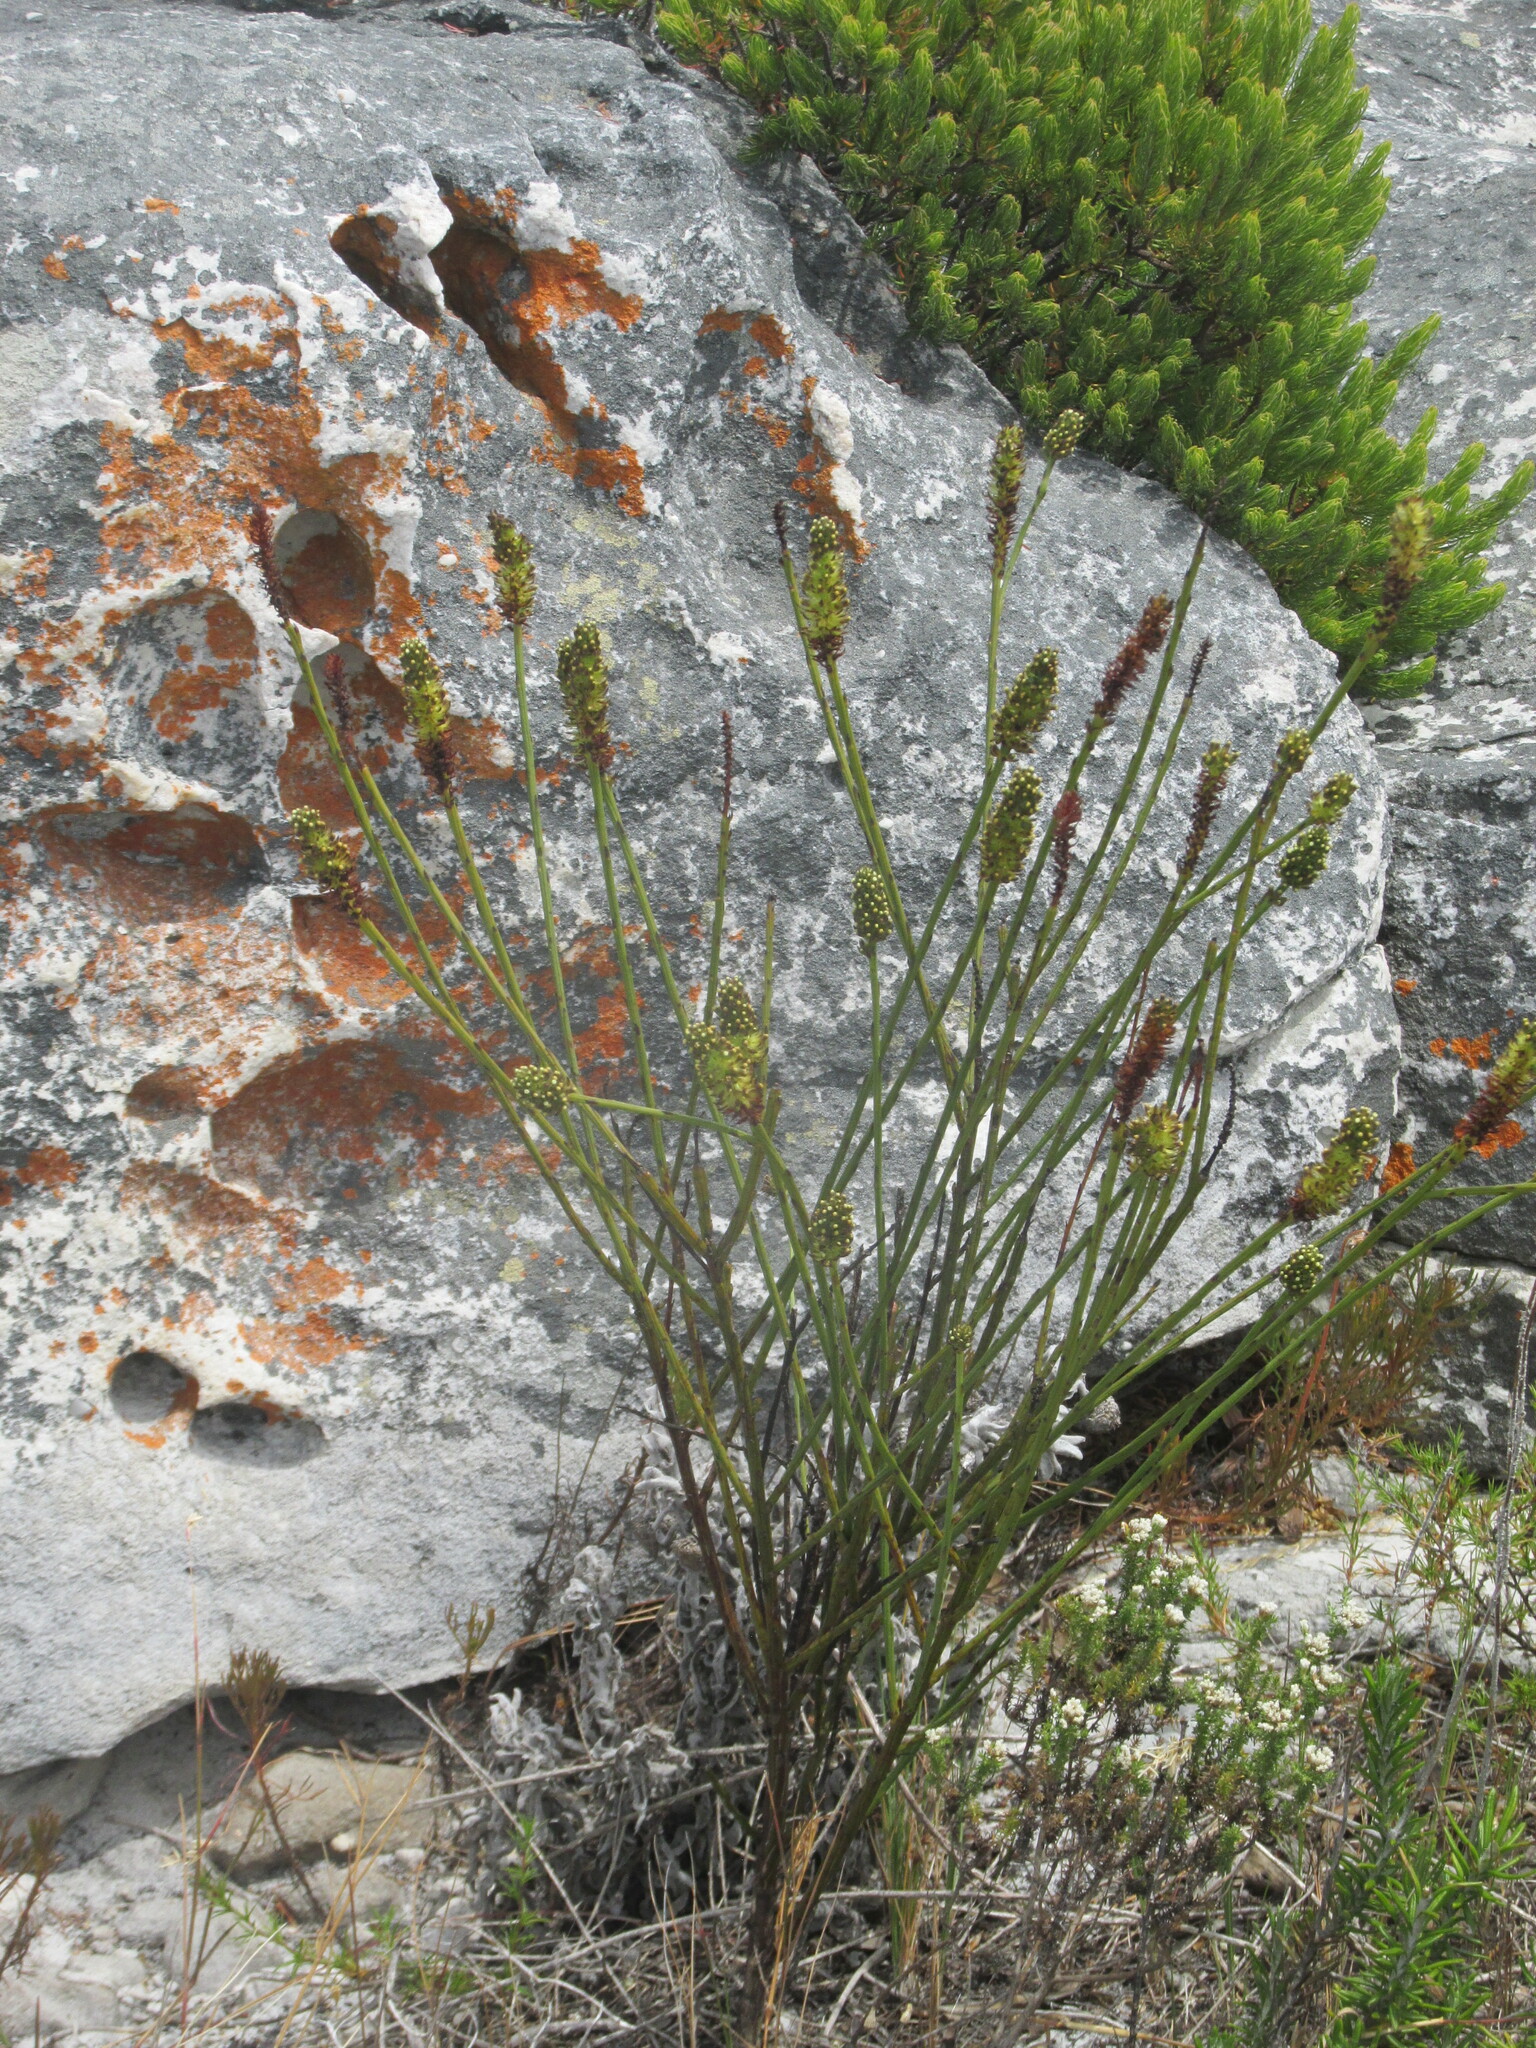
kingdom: Plantae
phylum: Tracheophyta
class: Magnoliopsida
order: Santalales
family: Thesiaceae
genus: Thesium
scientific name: Thesium spicatum
